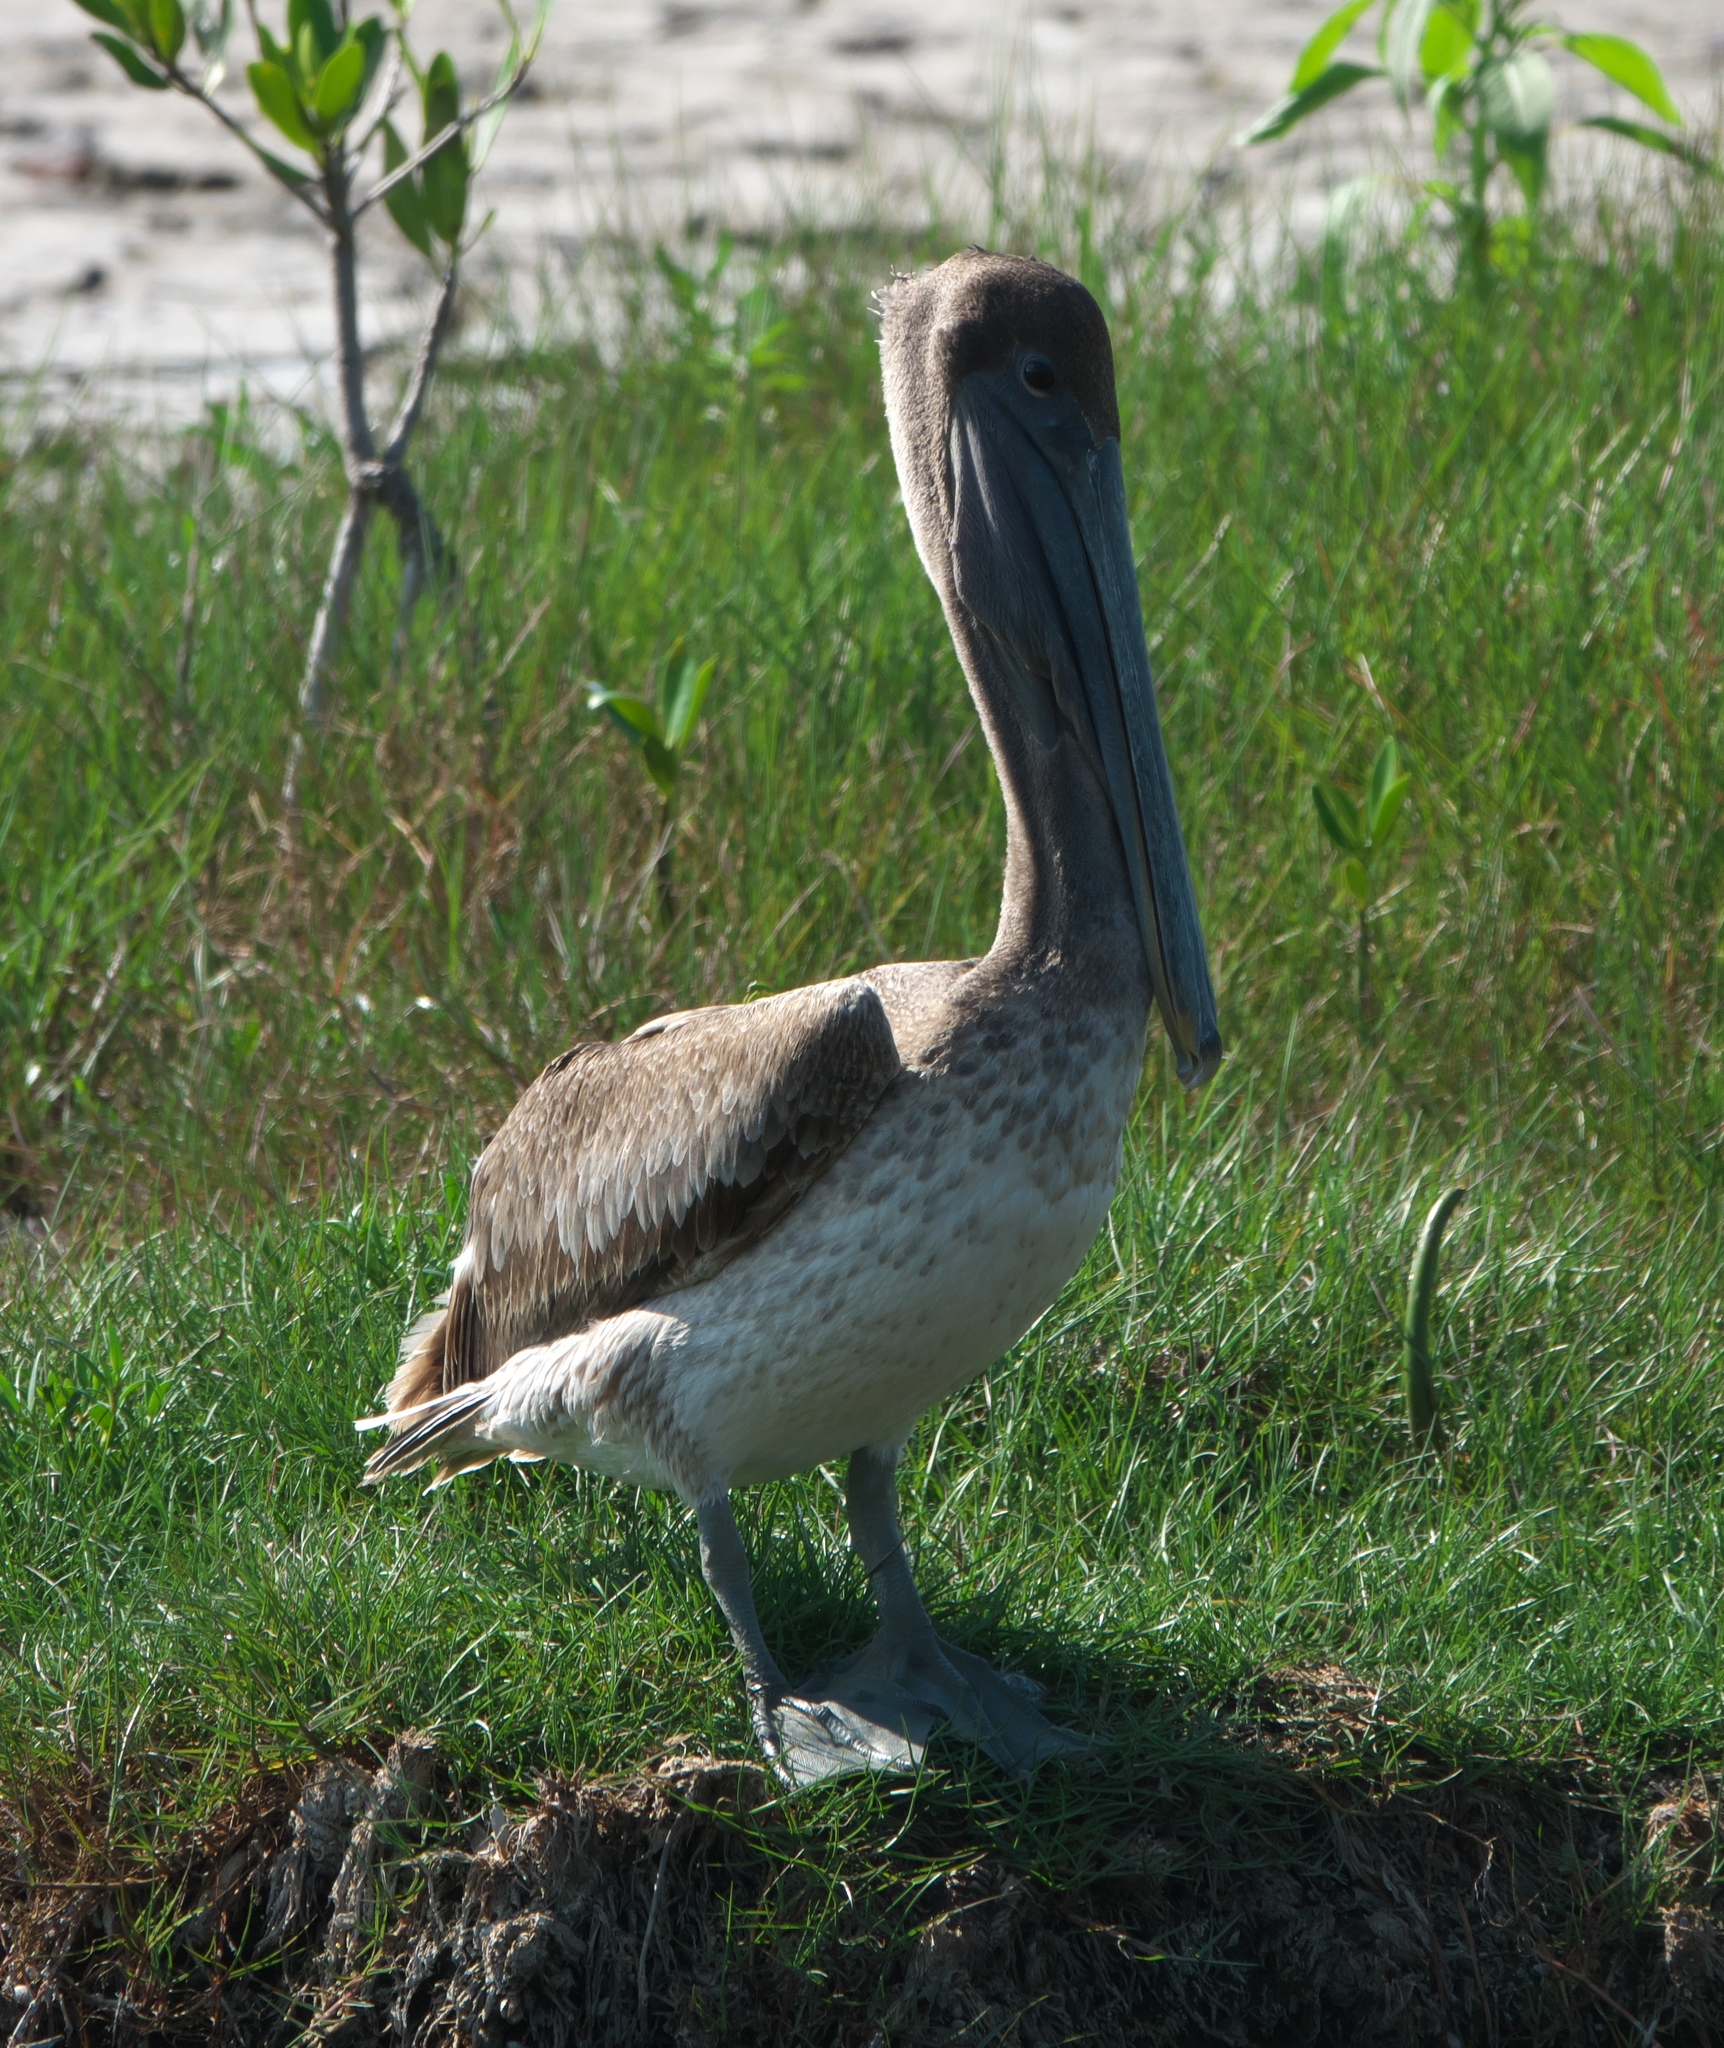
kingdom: Animalia
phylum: Chordata
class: Aves
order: Pelecaniformes
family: Pelecanidae
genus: Pelecanus
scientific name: Pelecanus occidentalis
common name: Brown pelican
